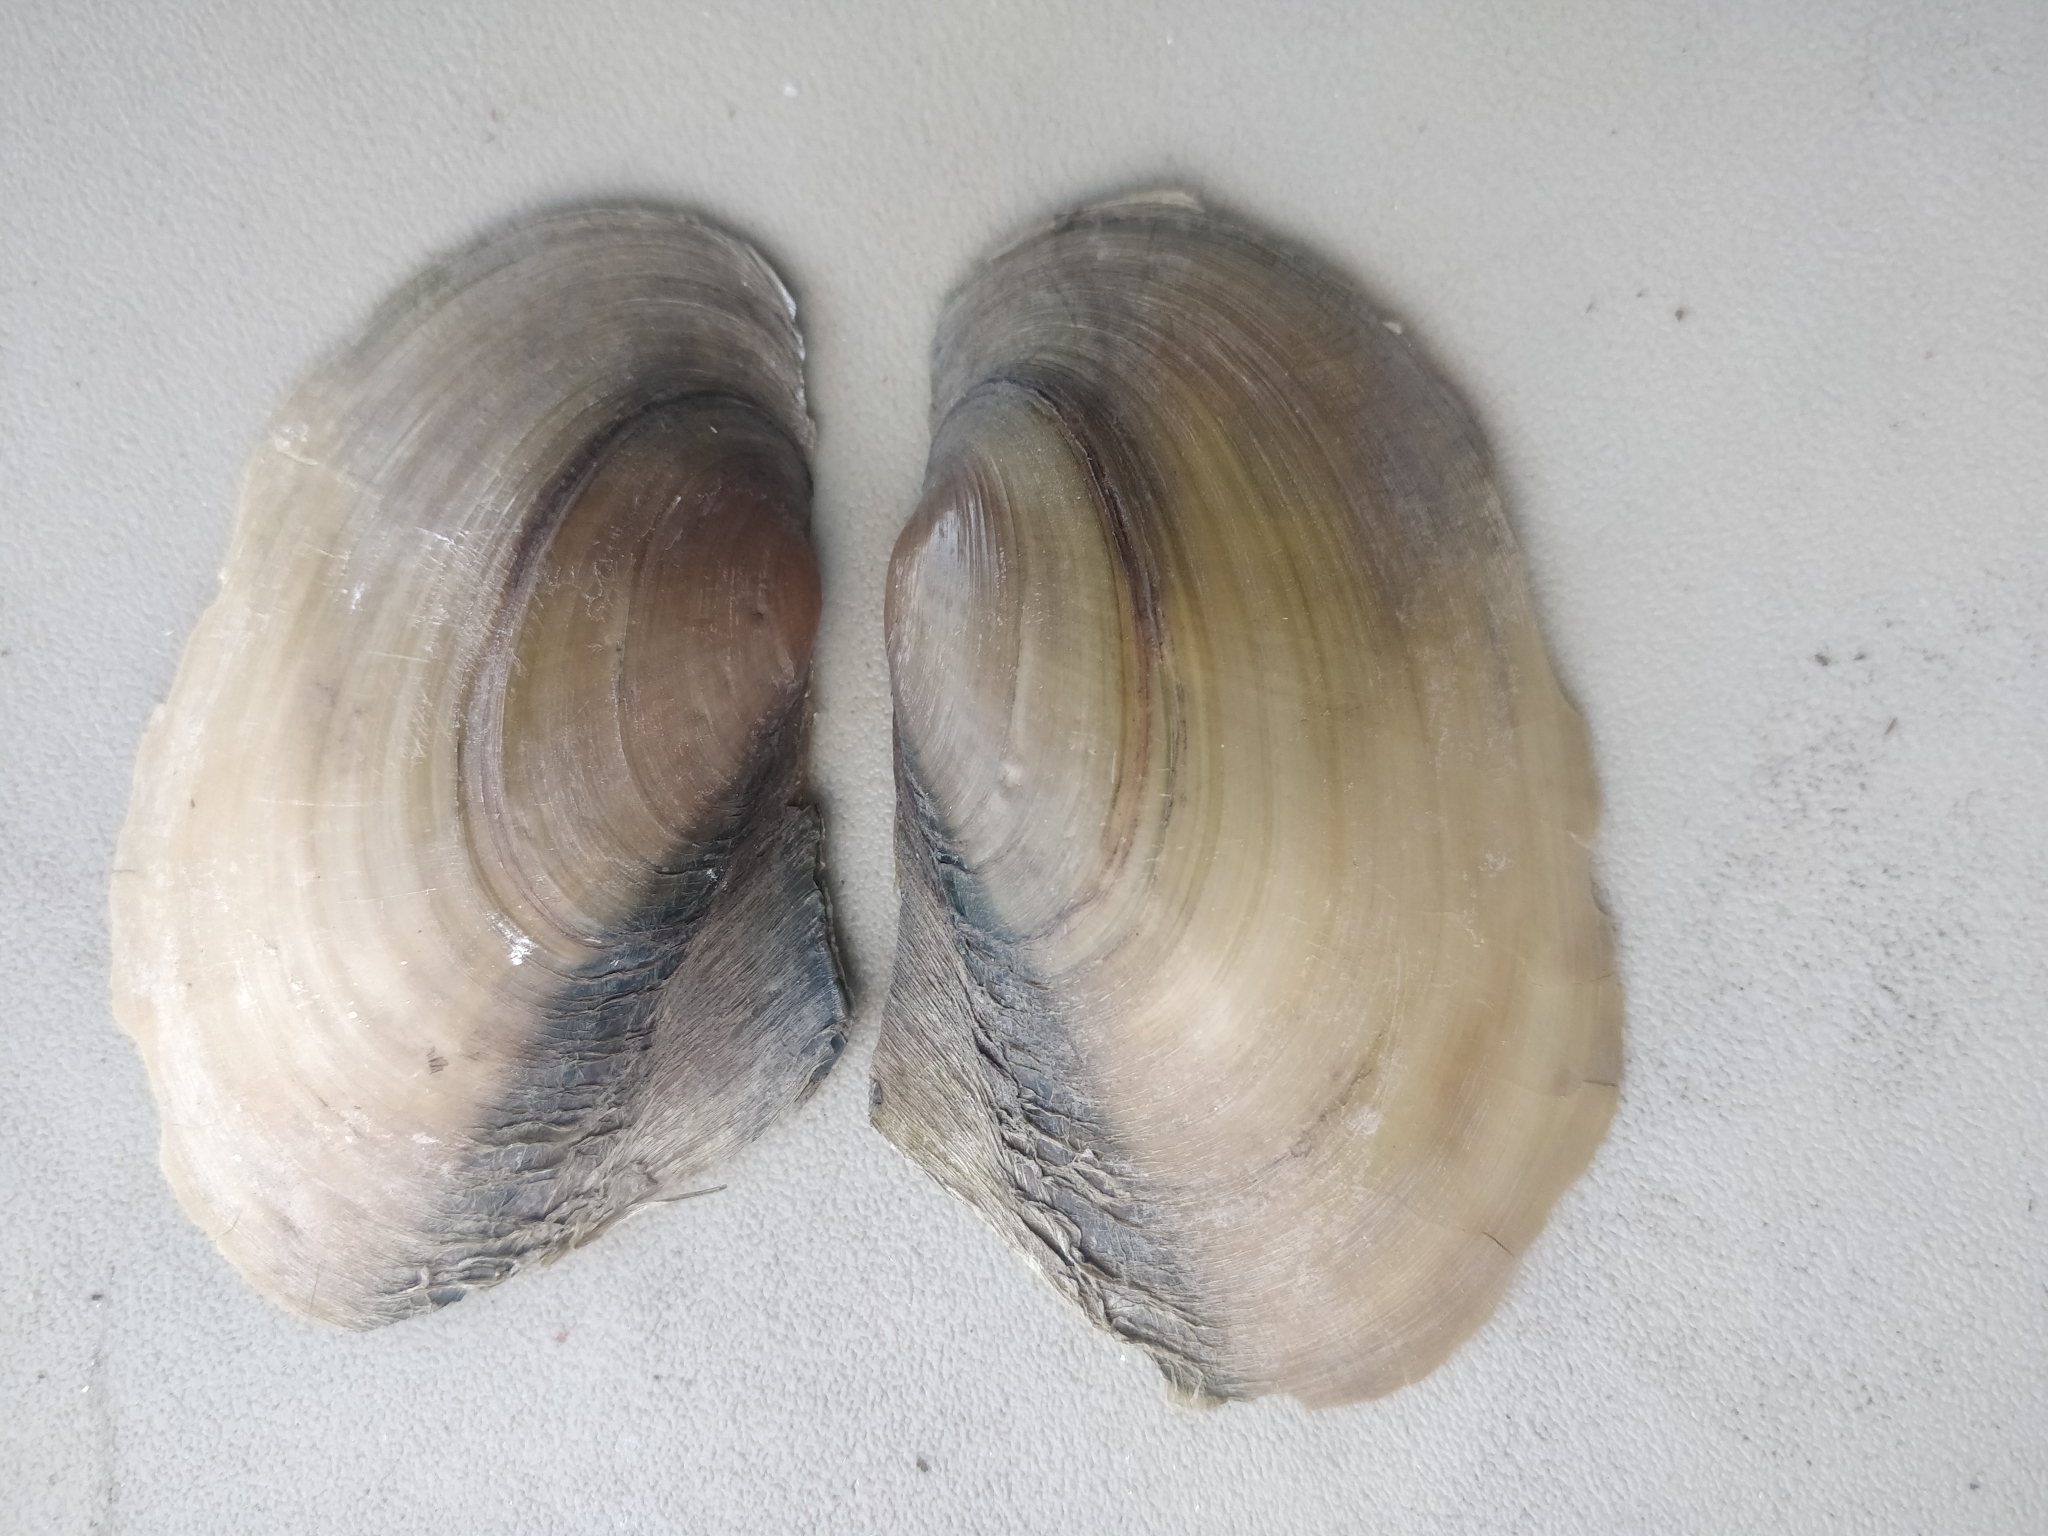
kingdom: Animalia
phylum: Mollusca
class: Bivalvia
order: Unionida
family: Unionidae
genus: Potamilus
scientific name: Potamilus fragilis
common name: Fragile papershell
